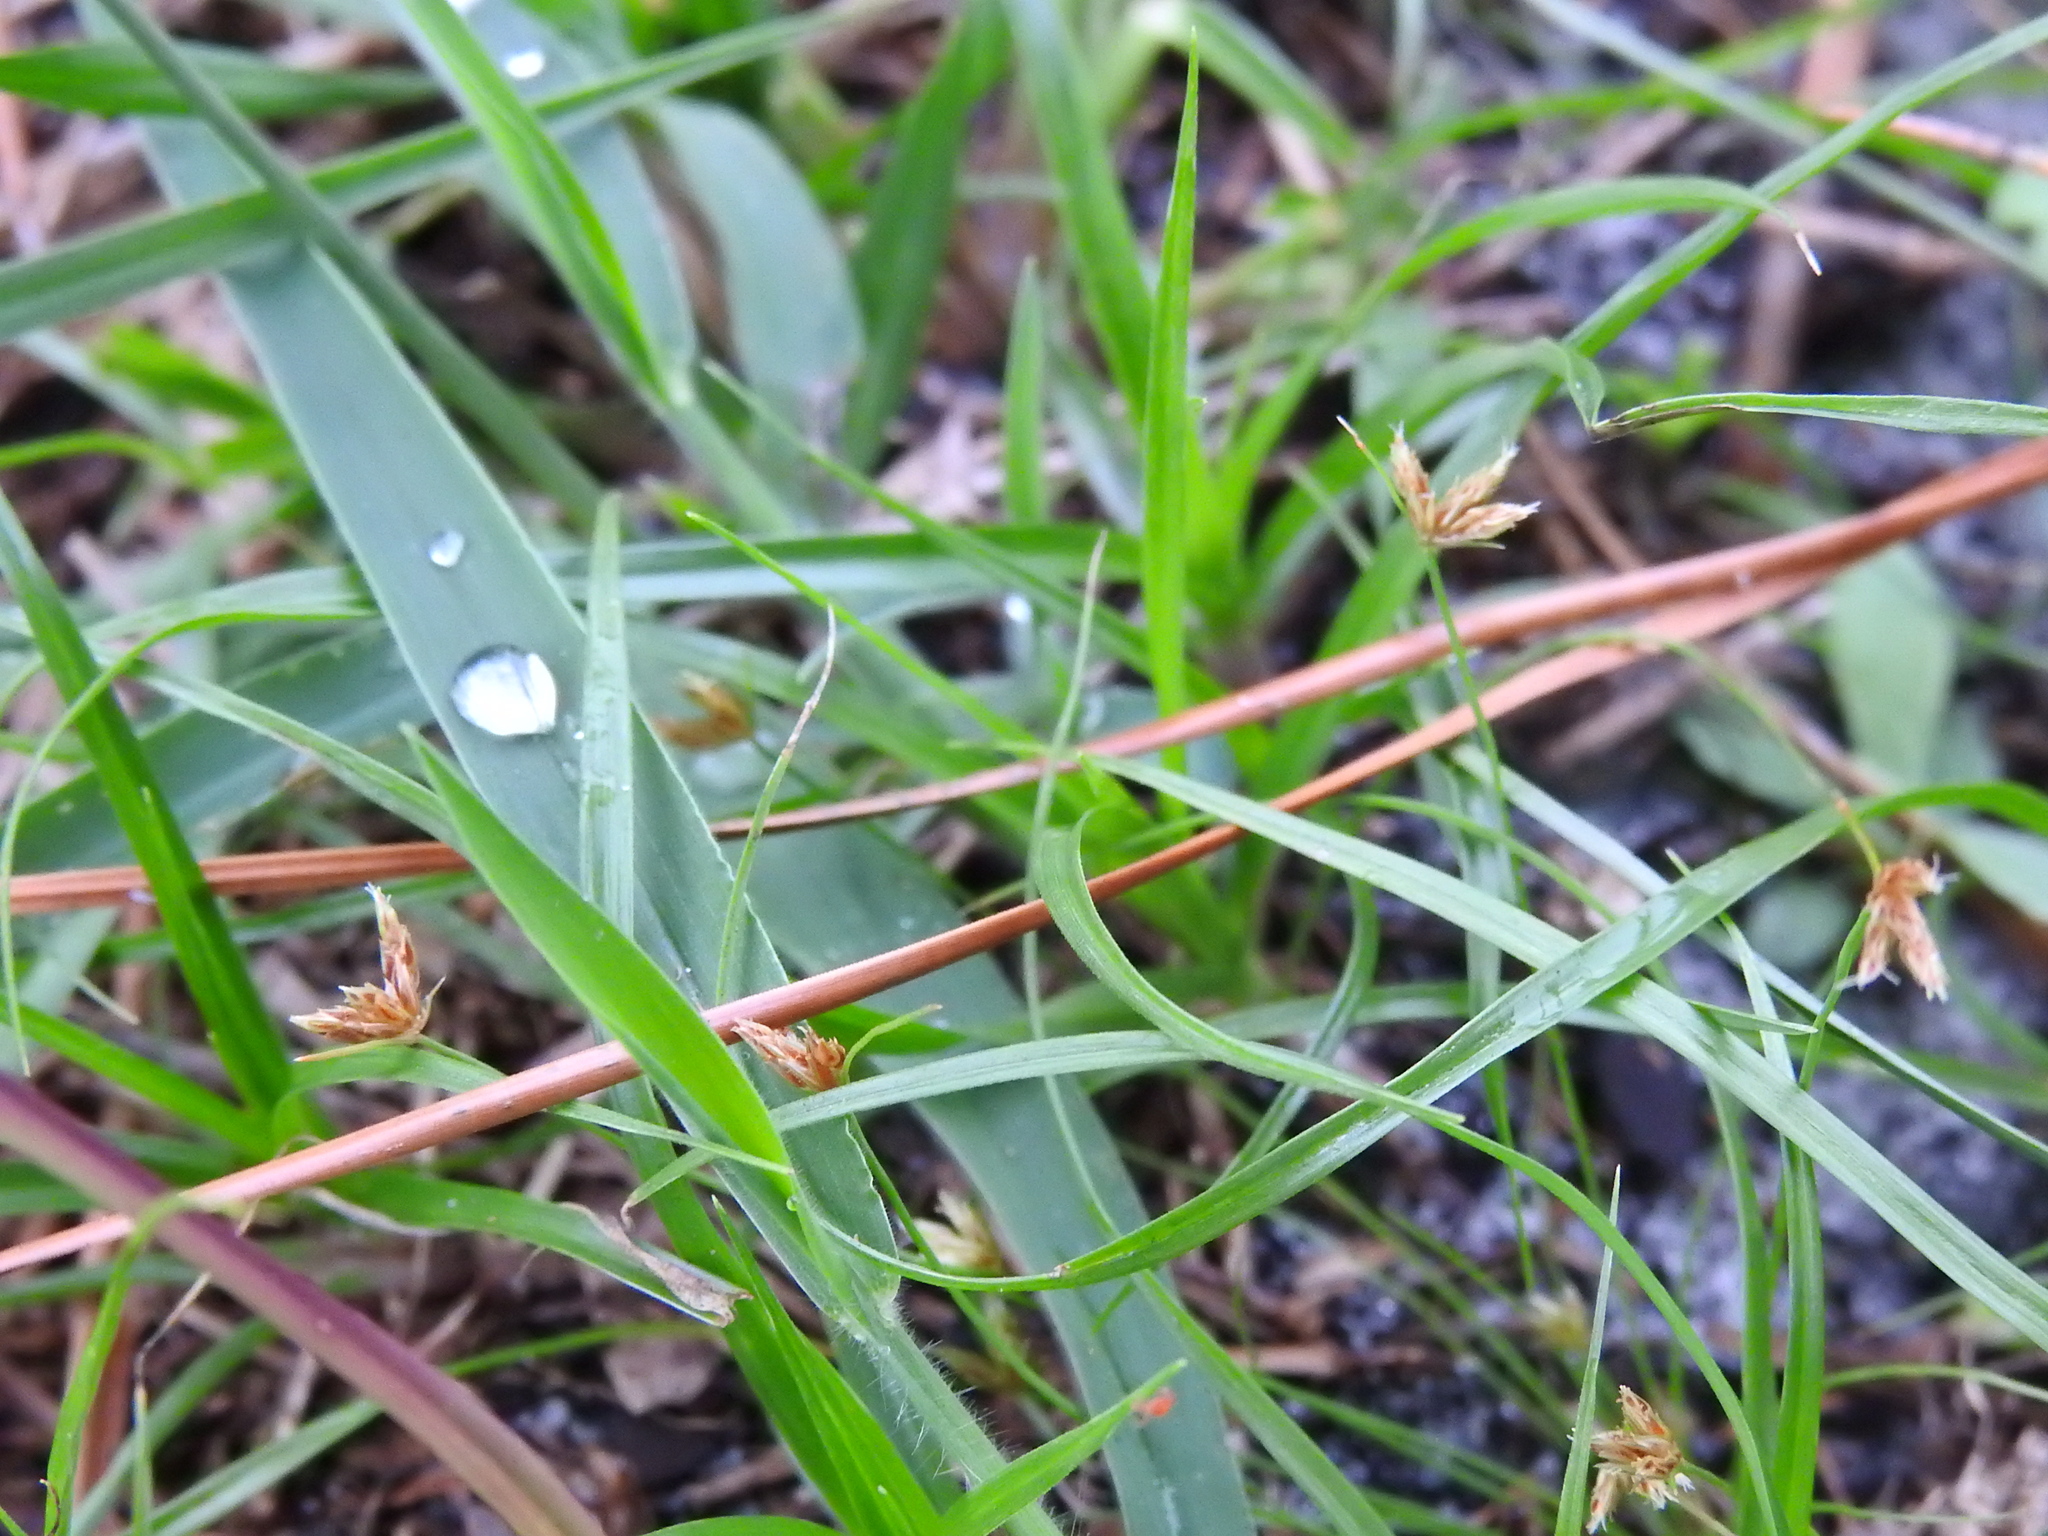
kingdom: Plantae
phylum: Tracheophyta
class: Liliopsida
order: Poales
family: Cyperaceae
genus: Bulbostylis
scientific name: Bulbostylis barbata
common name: Watergrass
